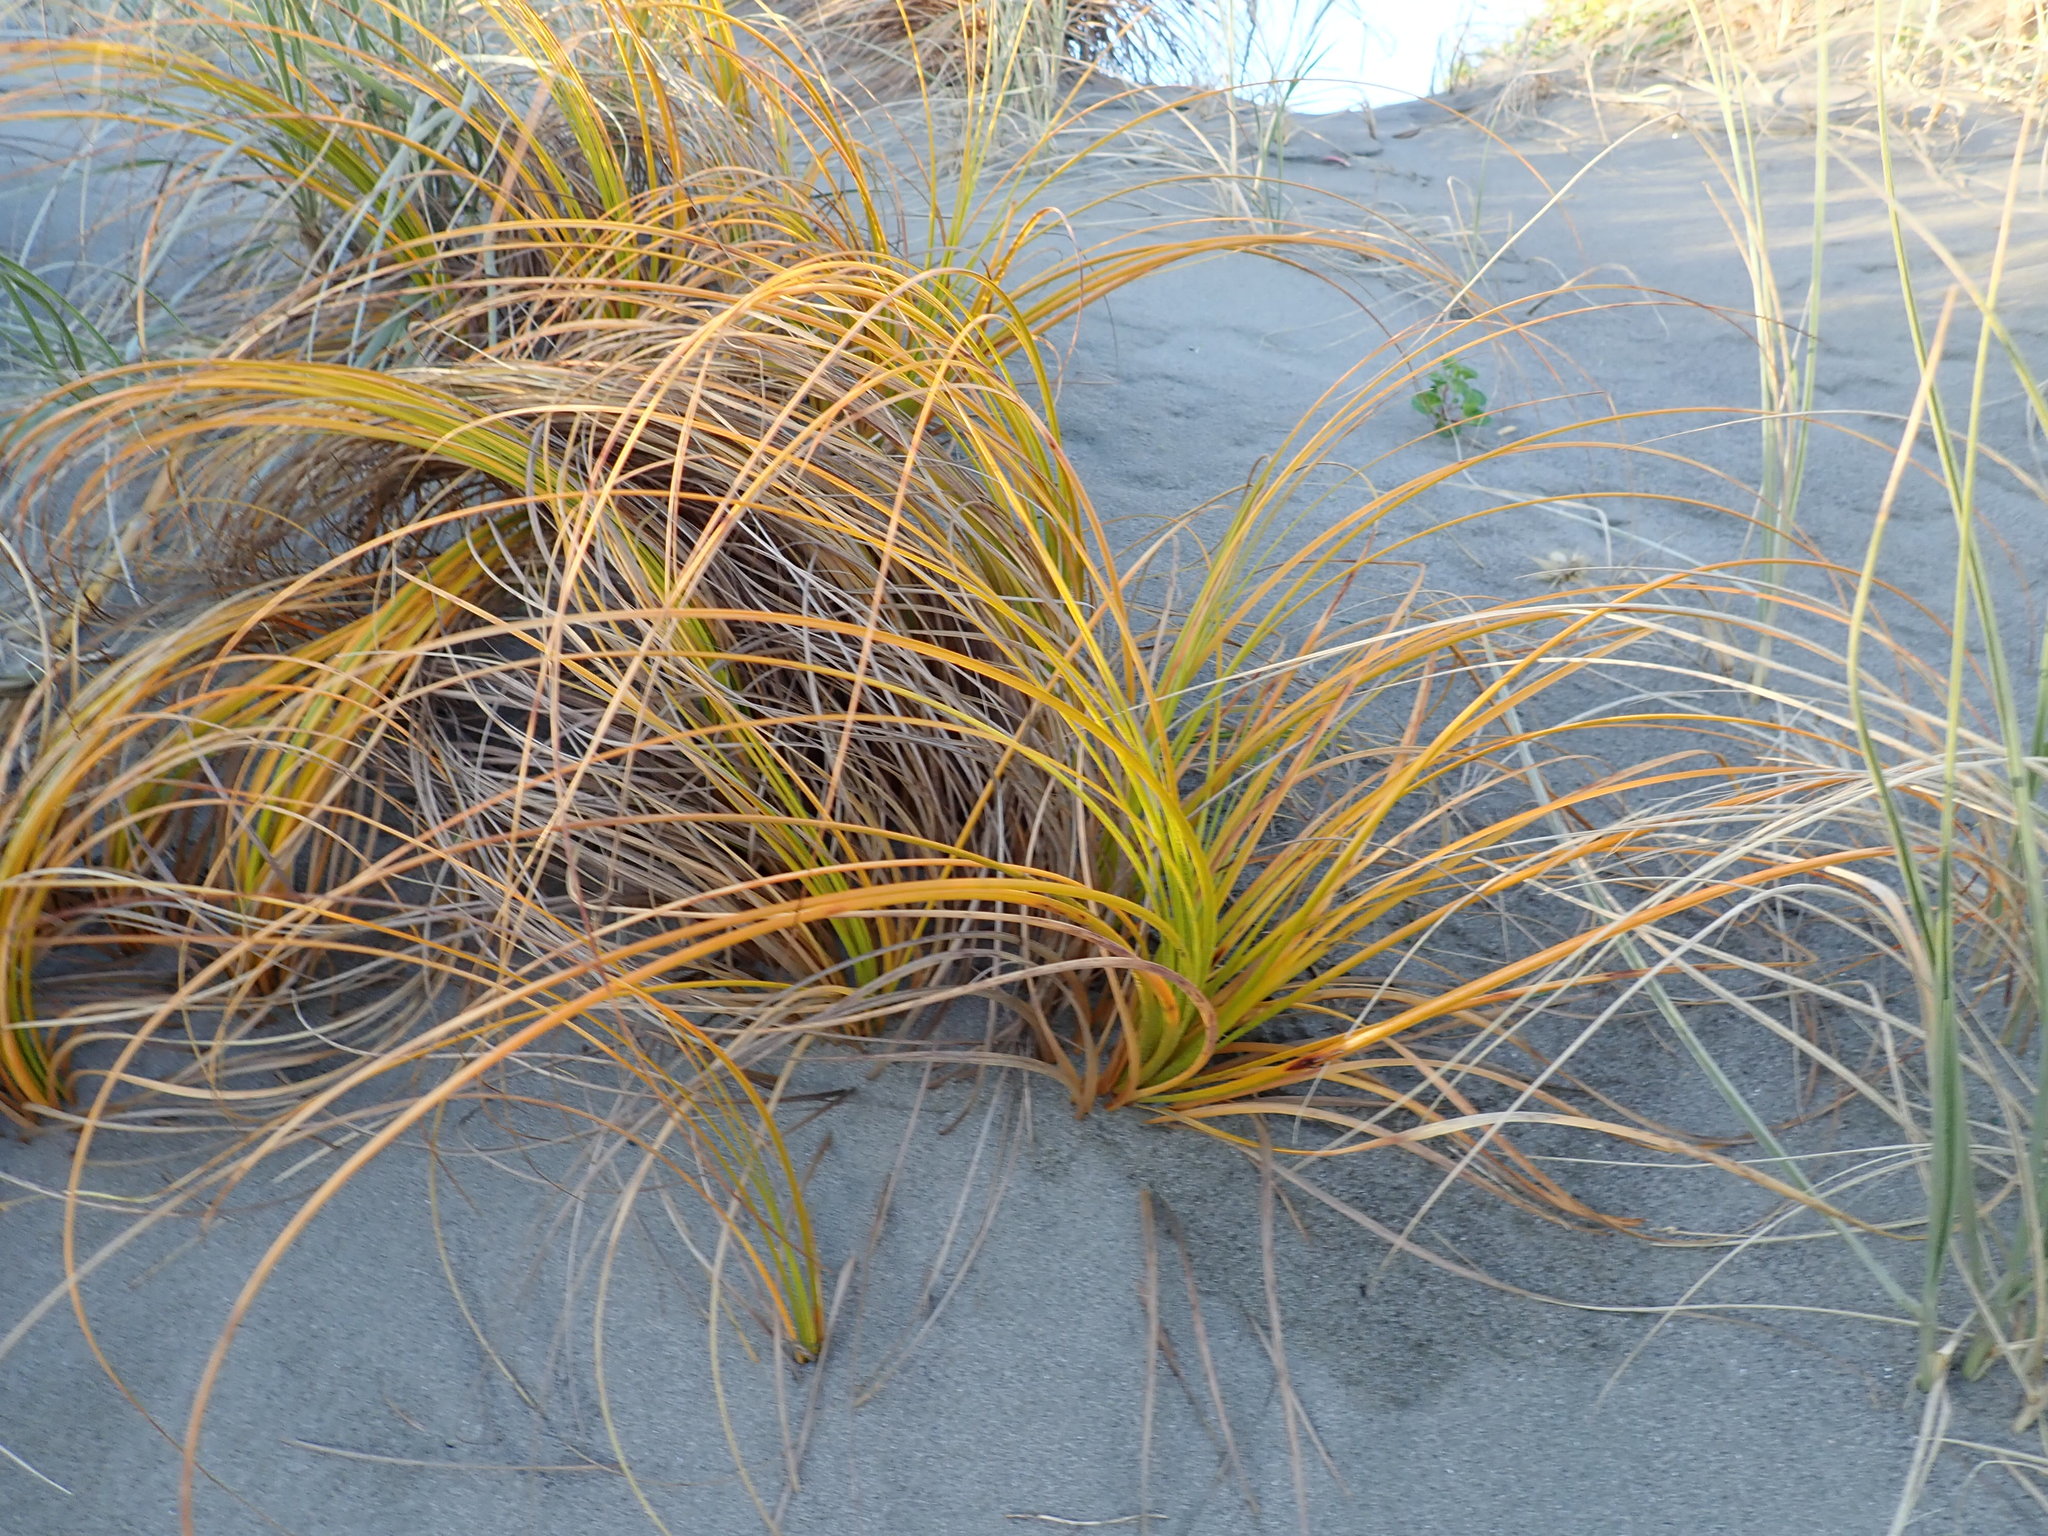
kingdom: Plantae
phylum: Tracheophyta
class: Liliopsida
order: Poales
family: Cyperaceae
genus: Ficinia
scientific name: Ficinia spiralis
